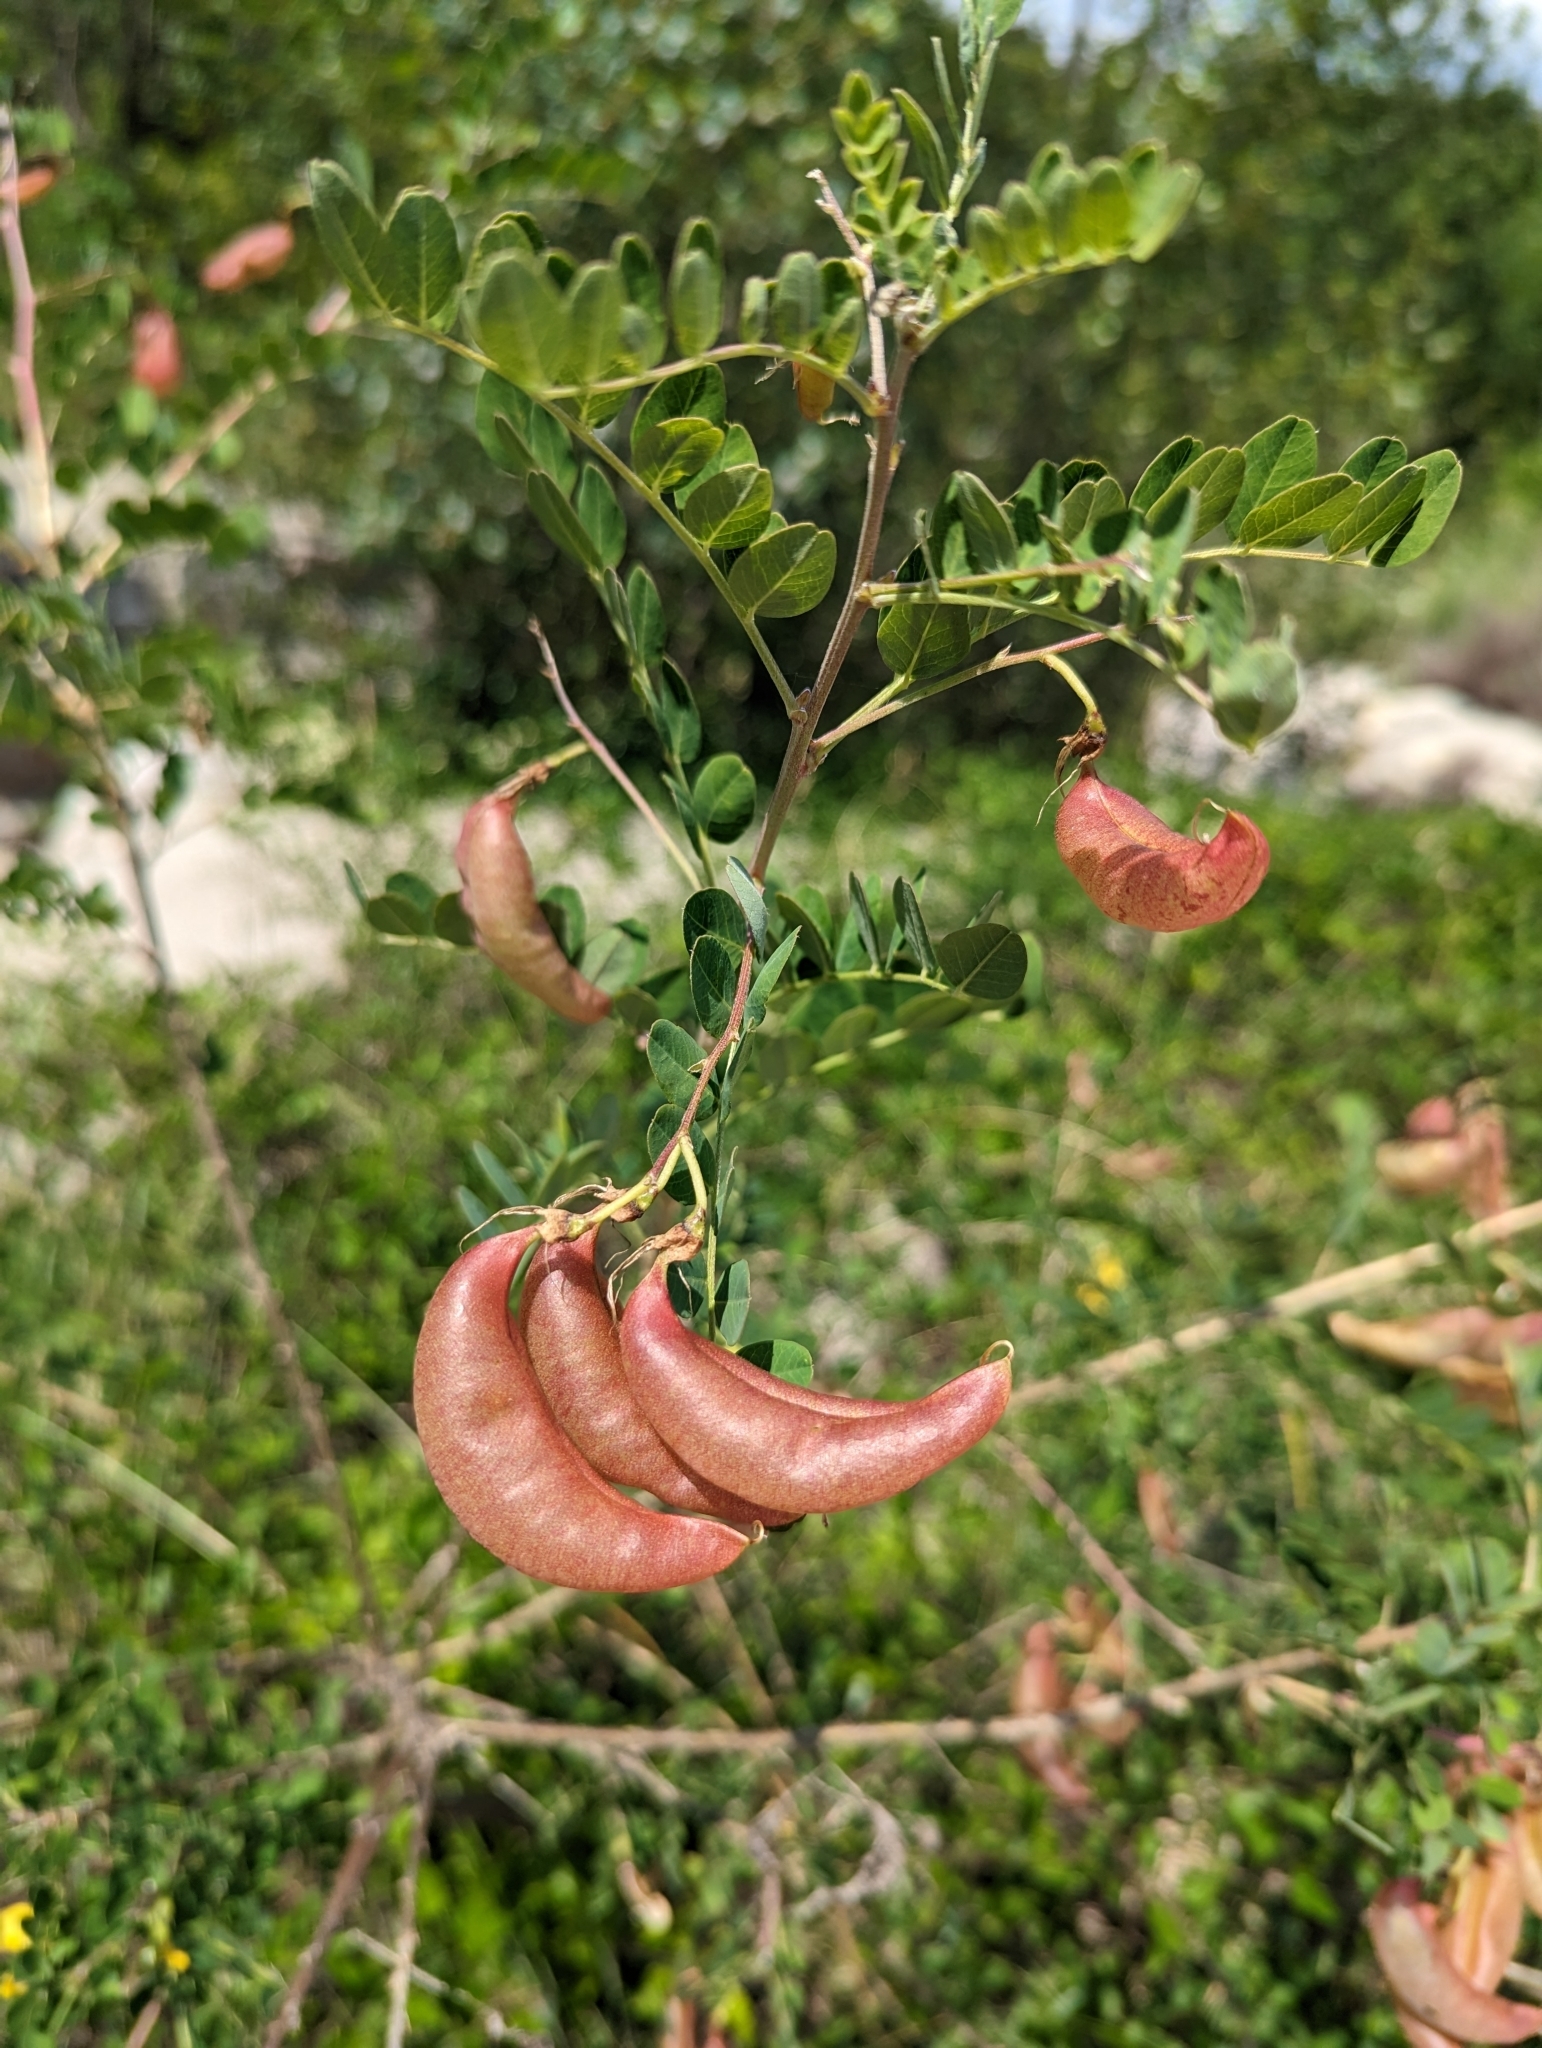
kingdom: Plantae
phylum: Tracheophyta
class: Magnoliopsida
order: Fabales
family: Fabaceae
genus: Colutea
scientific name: Colutea arborescens
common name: Bladder-senna
